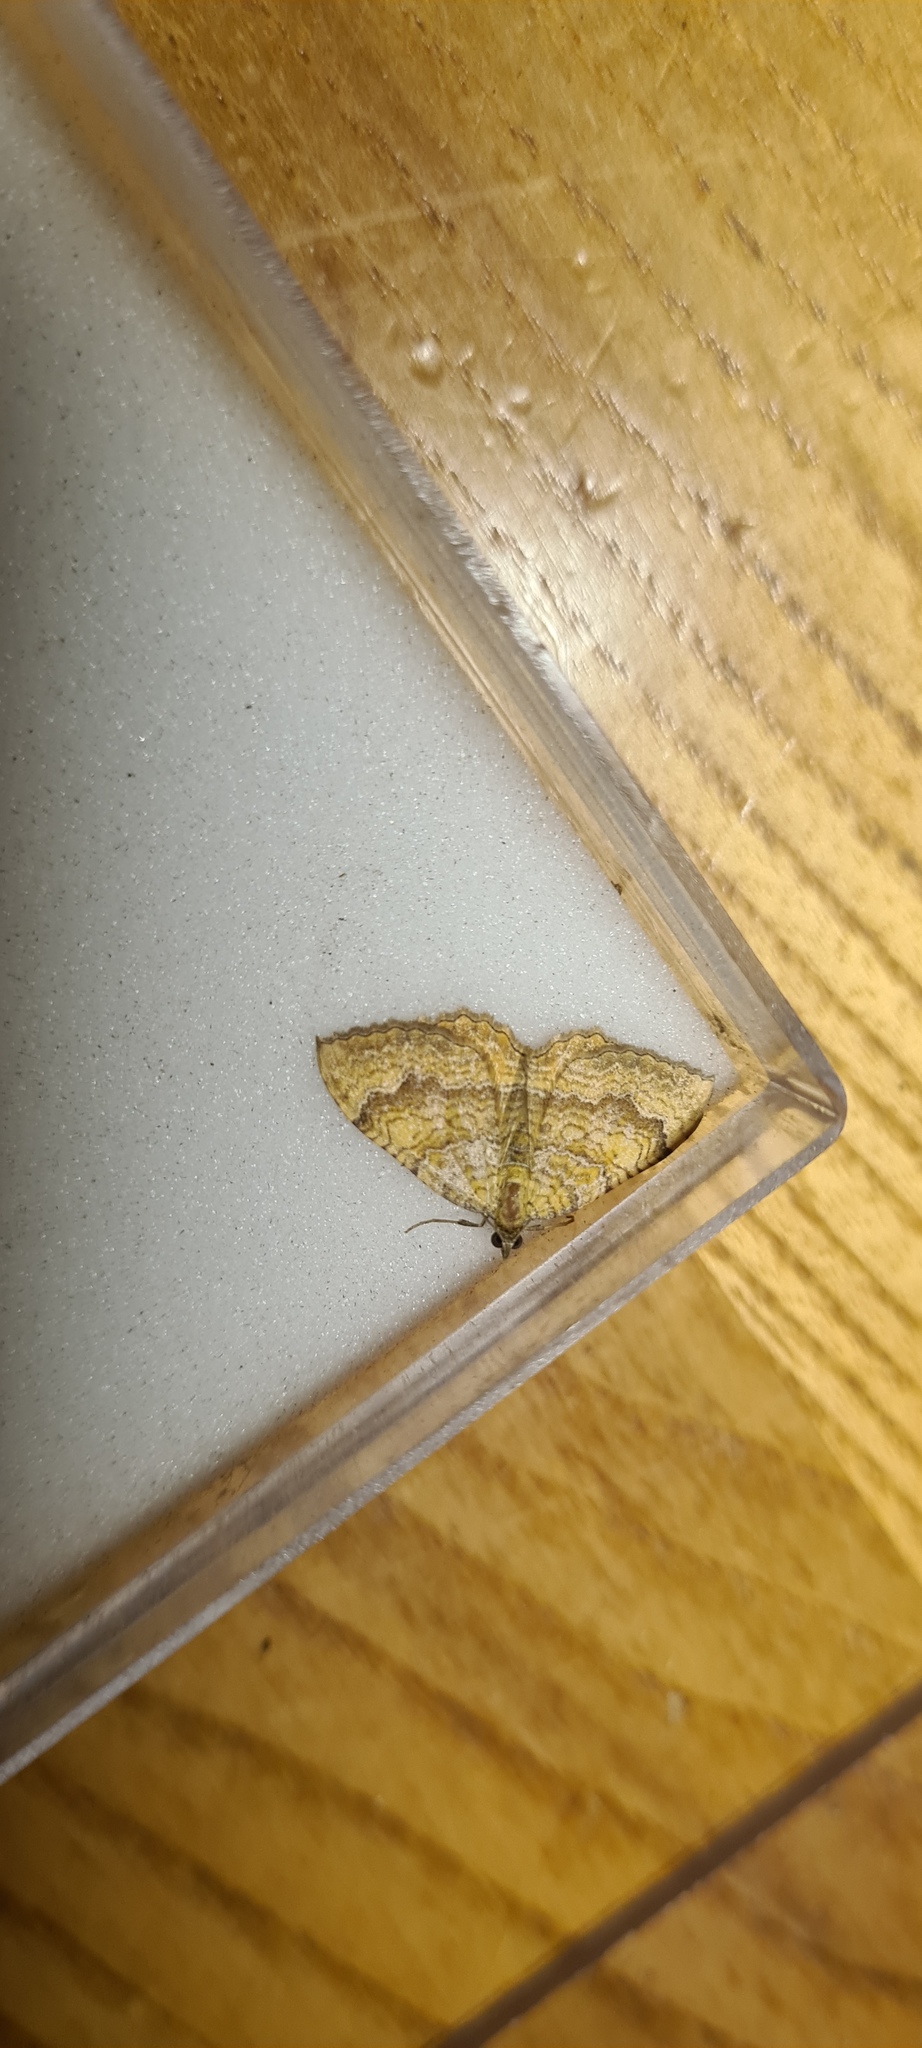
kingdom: Animalia
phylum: Arthropoda
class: Insecta
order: Lepidoptera
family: Geometridae
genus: Camptogramma
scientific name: Camptogramma bilineata
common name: Yellow shell
